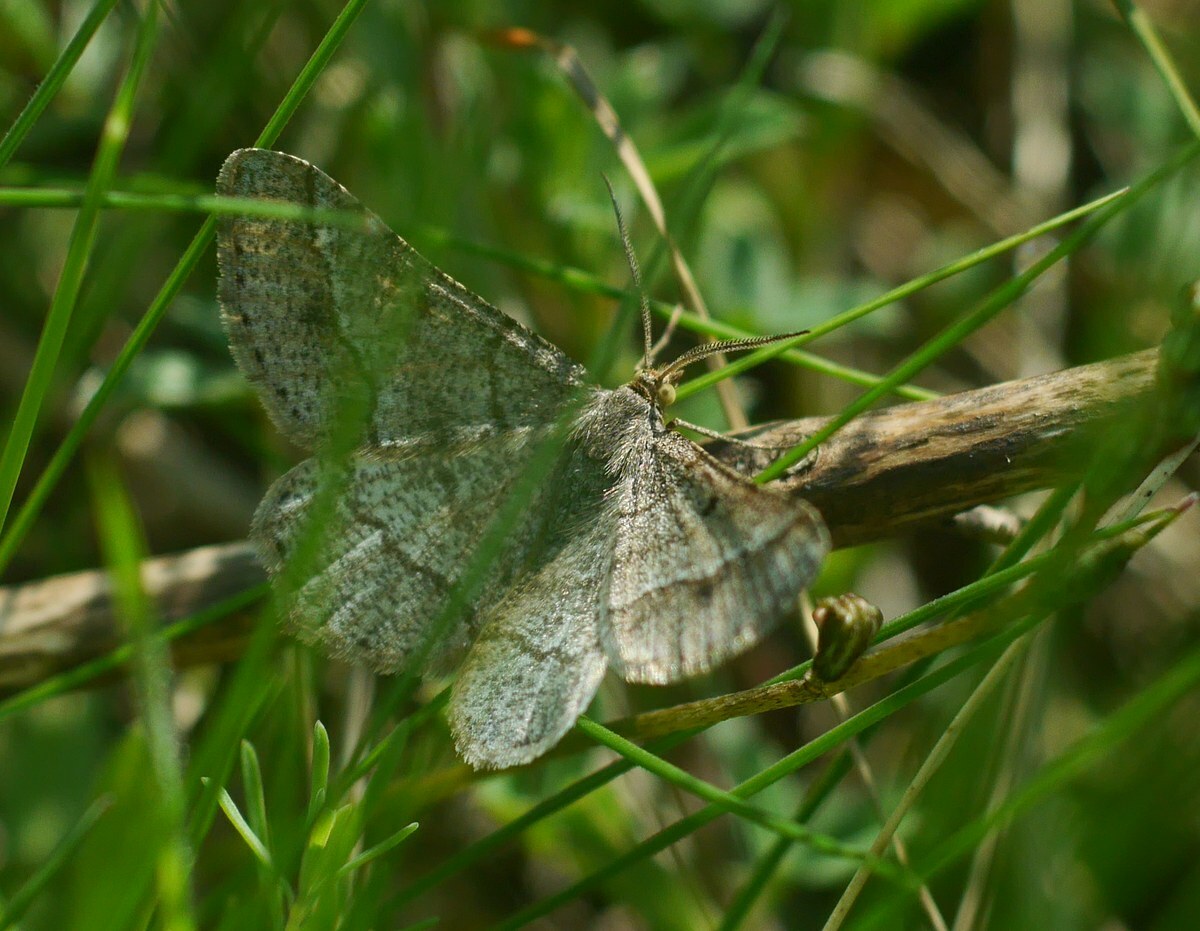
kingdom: Animalia
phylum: Arthropoda
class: Insecta
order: Lepidoptera
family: Geometridae
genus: Tephrina
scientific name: Tephrina murinaria
